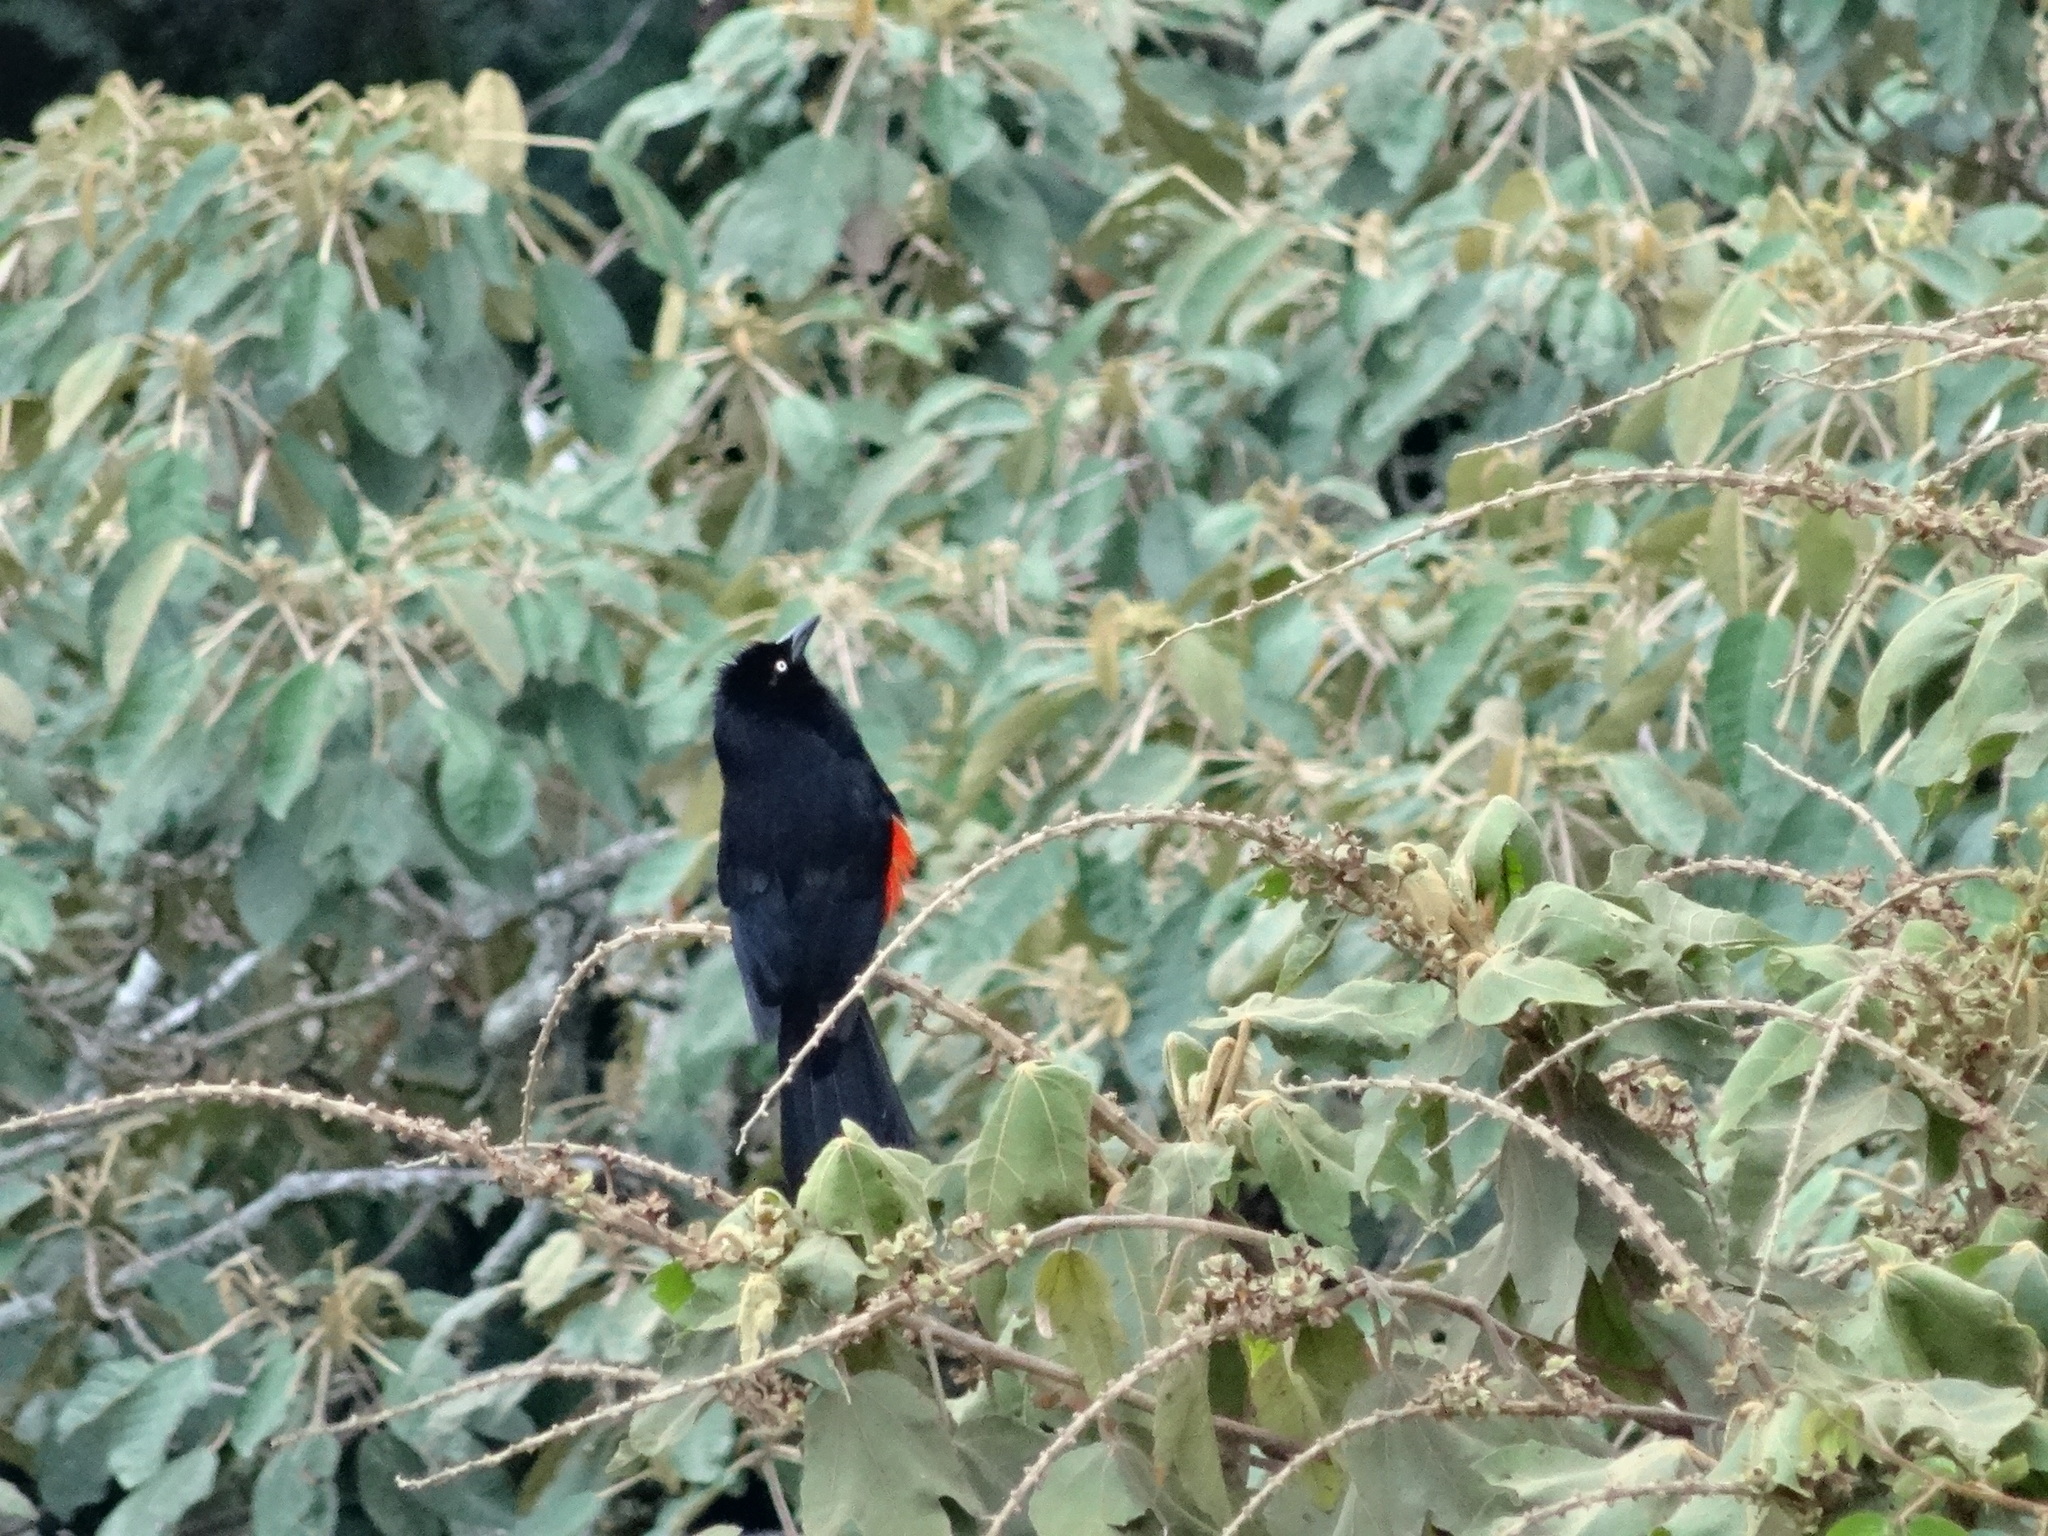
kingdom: Animalia
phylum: Chordata
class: Aves
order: Passeriformes
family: Icteridae
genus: Hypopyrrhus
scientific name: Hypopyrrhus pyrohypogaster
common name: Red-bellied grackle
